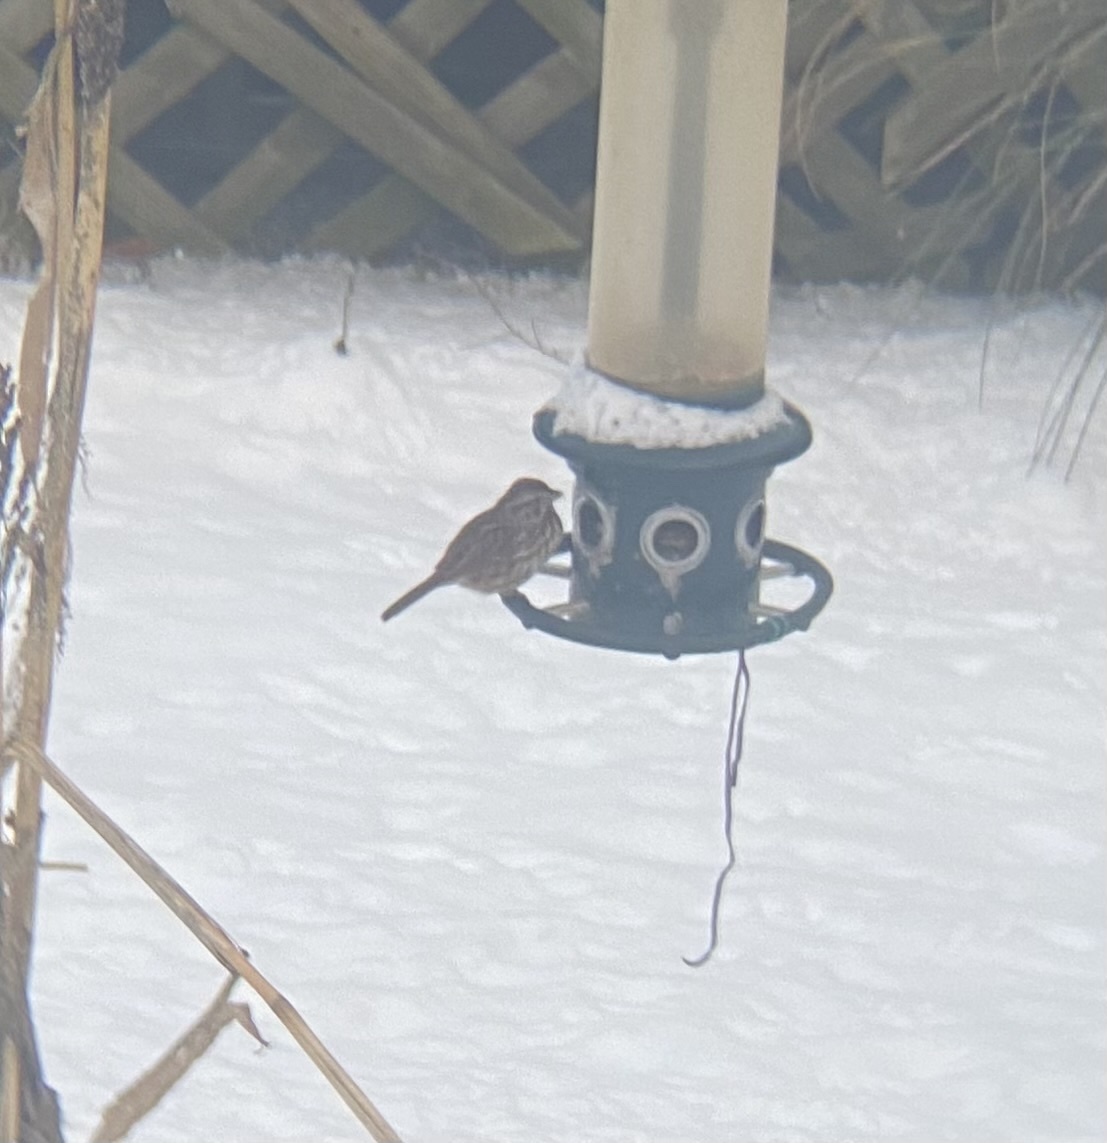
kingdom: Animalia
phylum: Chordata
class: Aves
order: Passeriformes
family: Passerellidae
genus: Melospiza
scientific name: Melospiza melodia
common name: Song sparrow
